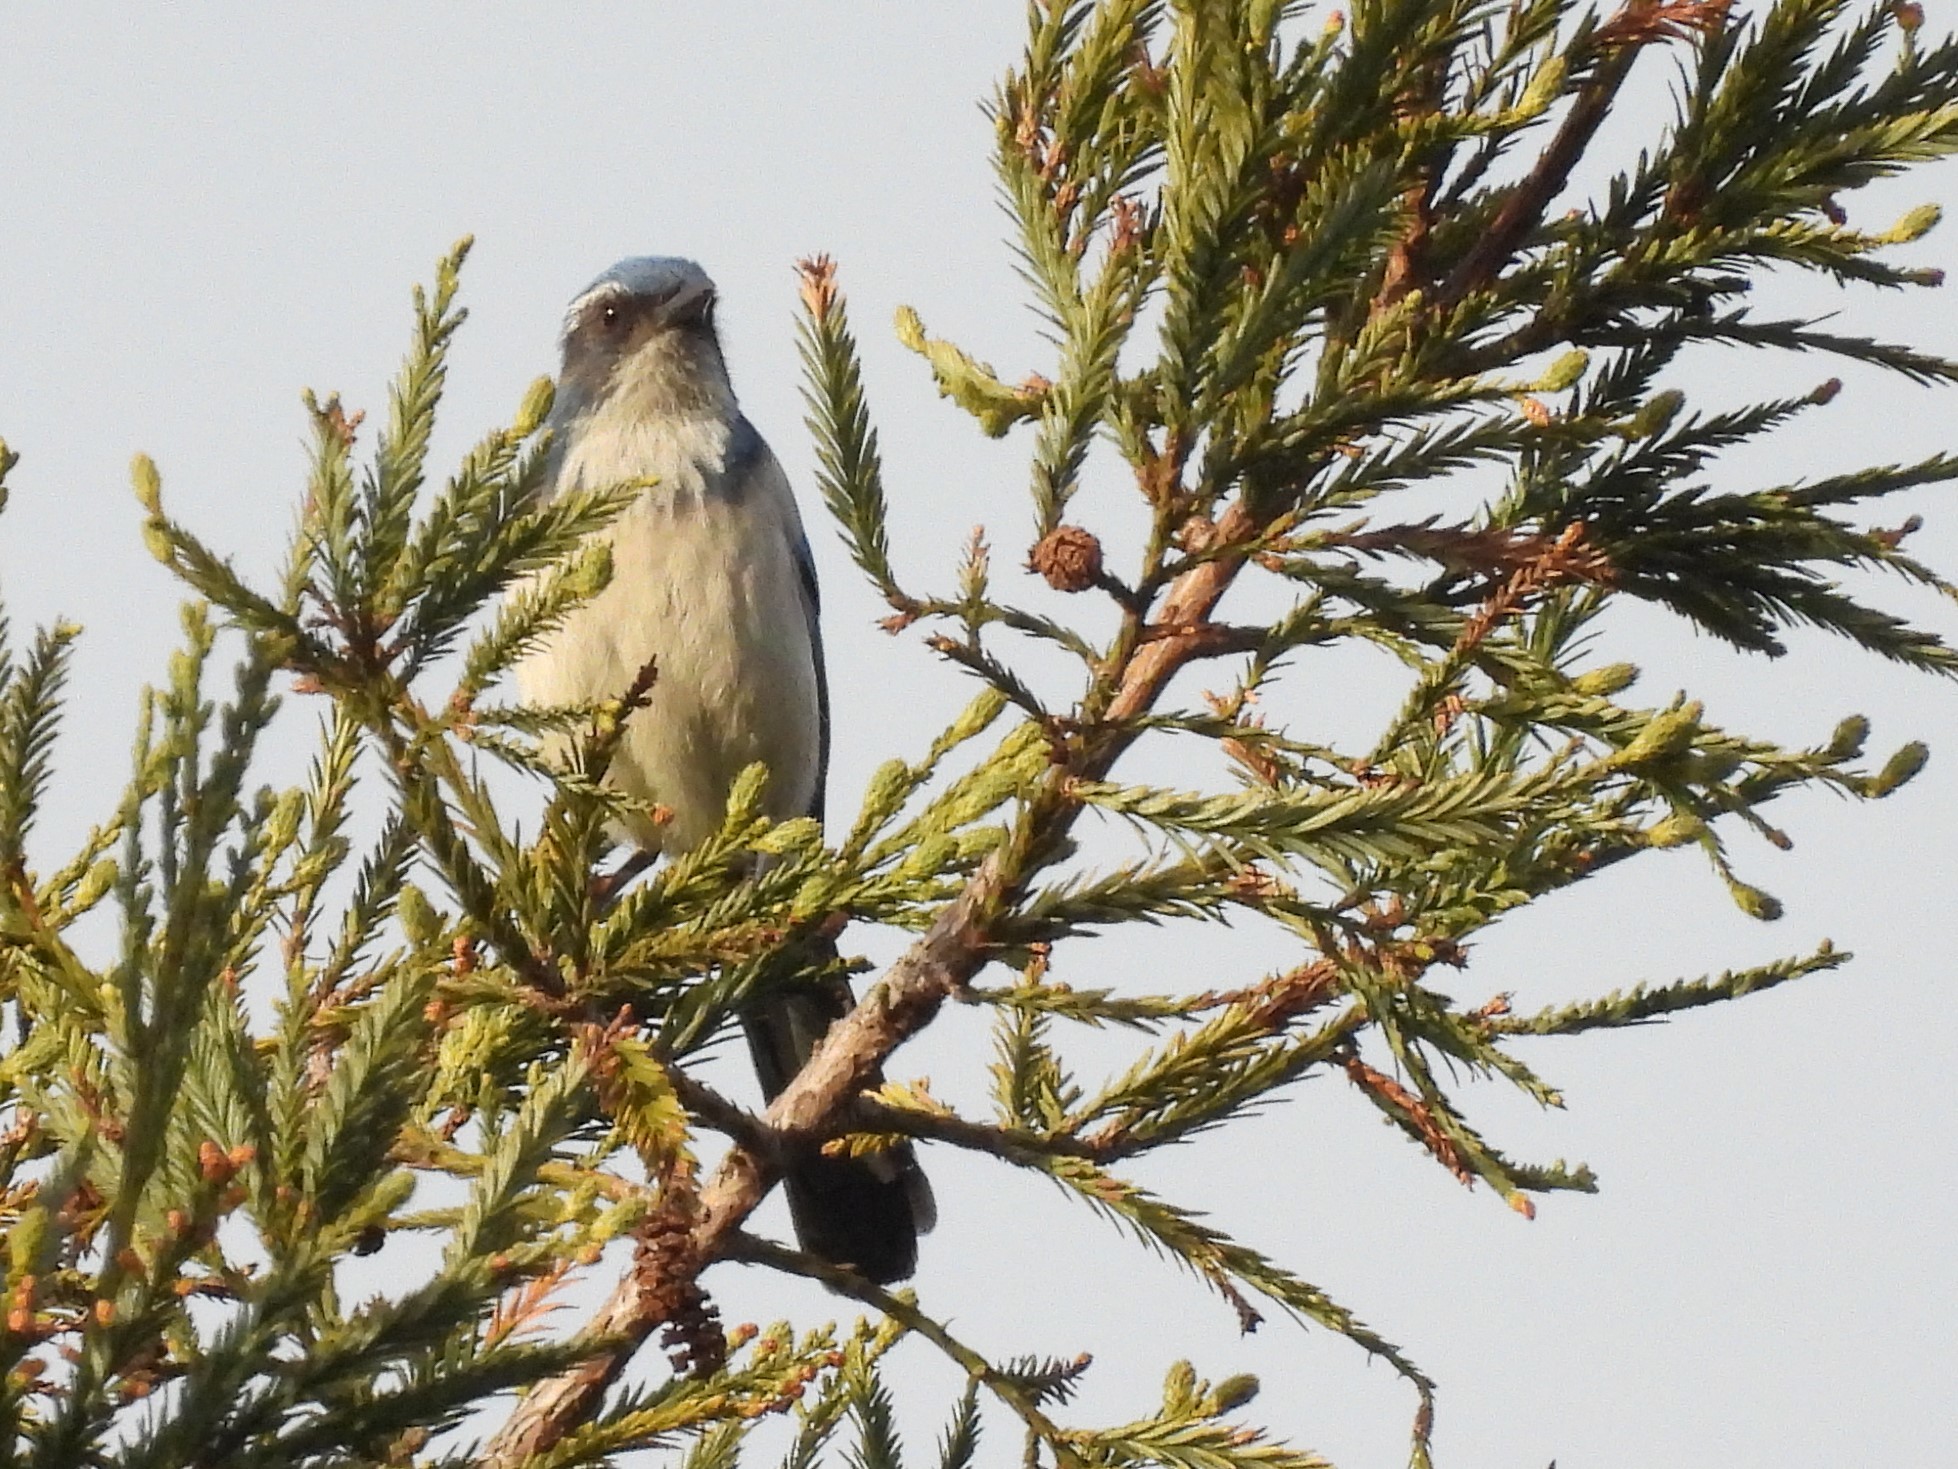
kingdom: Animalia
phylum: Chordata
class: Aves
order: Passeriformes
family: Corvidae
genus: Aphelocoma
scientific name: Aphelocoma californica
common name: California scrub-jay
